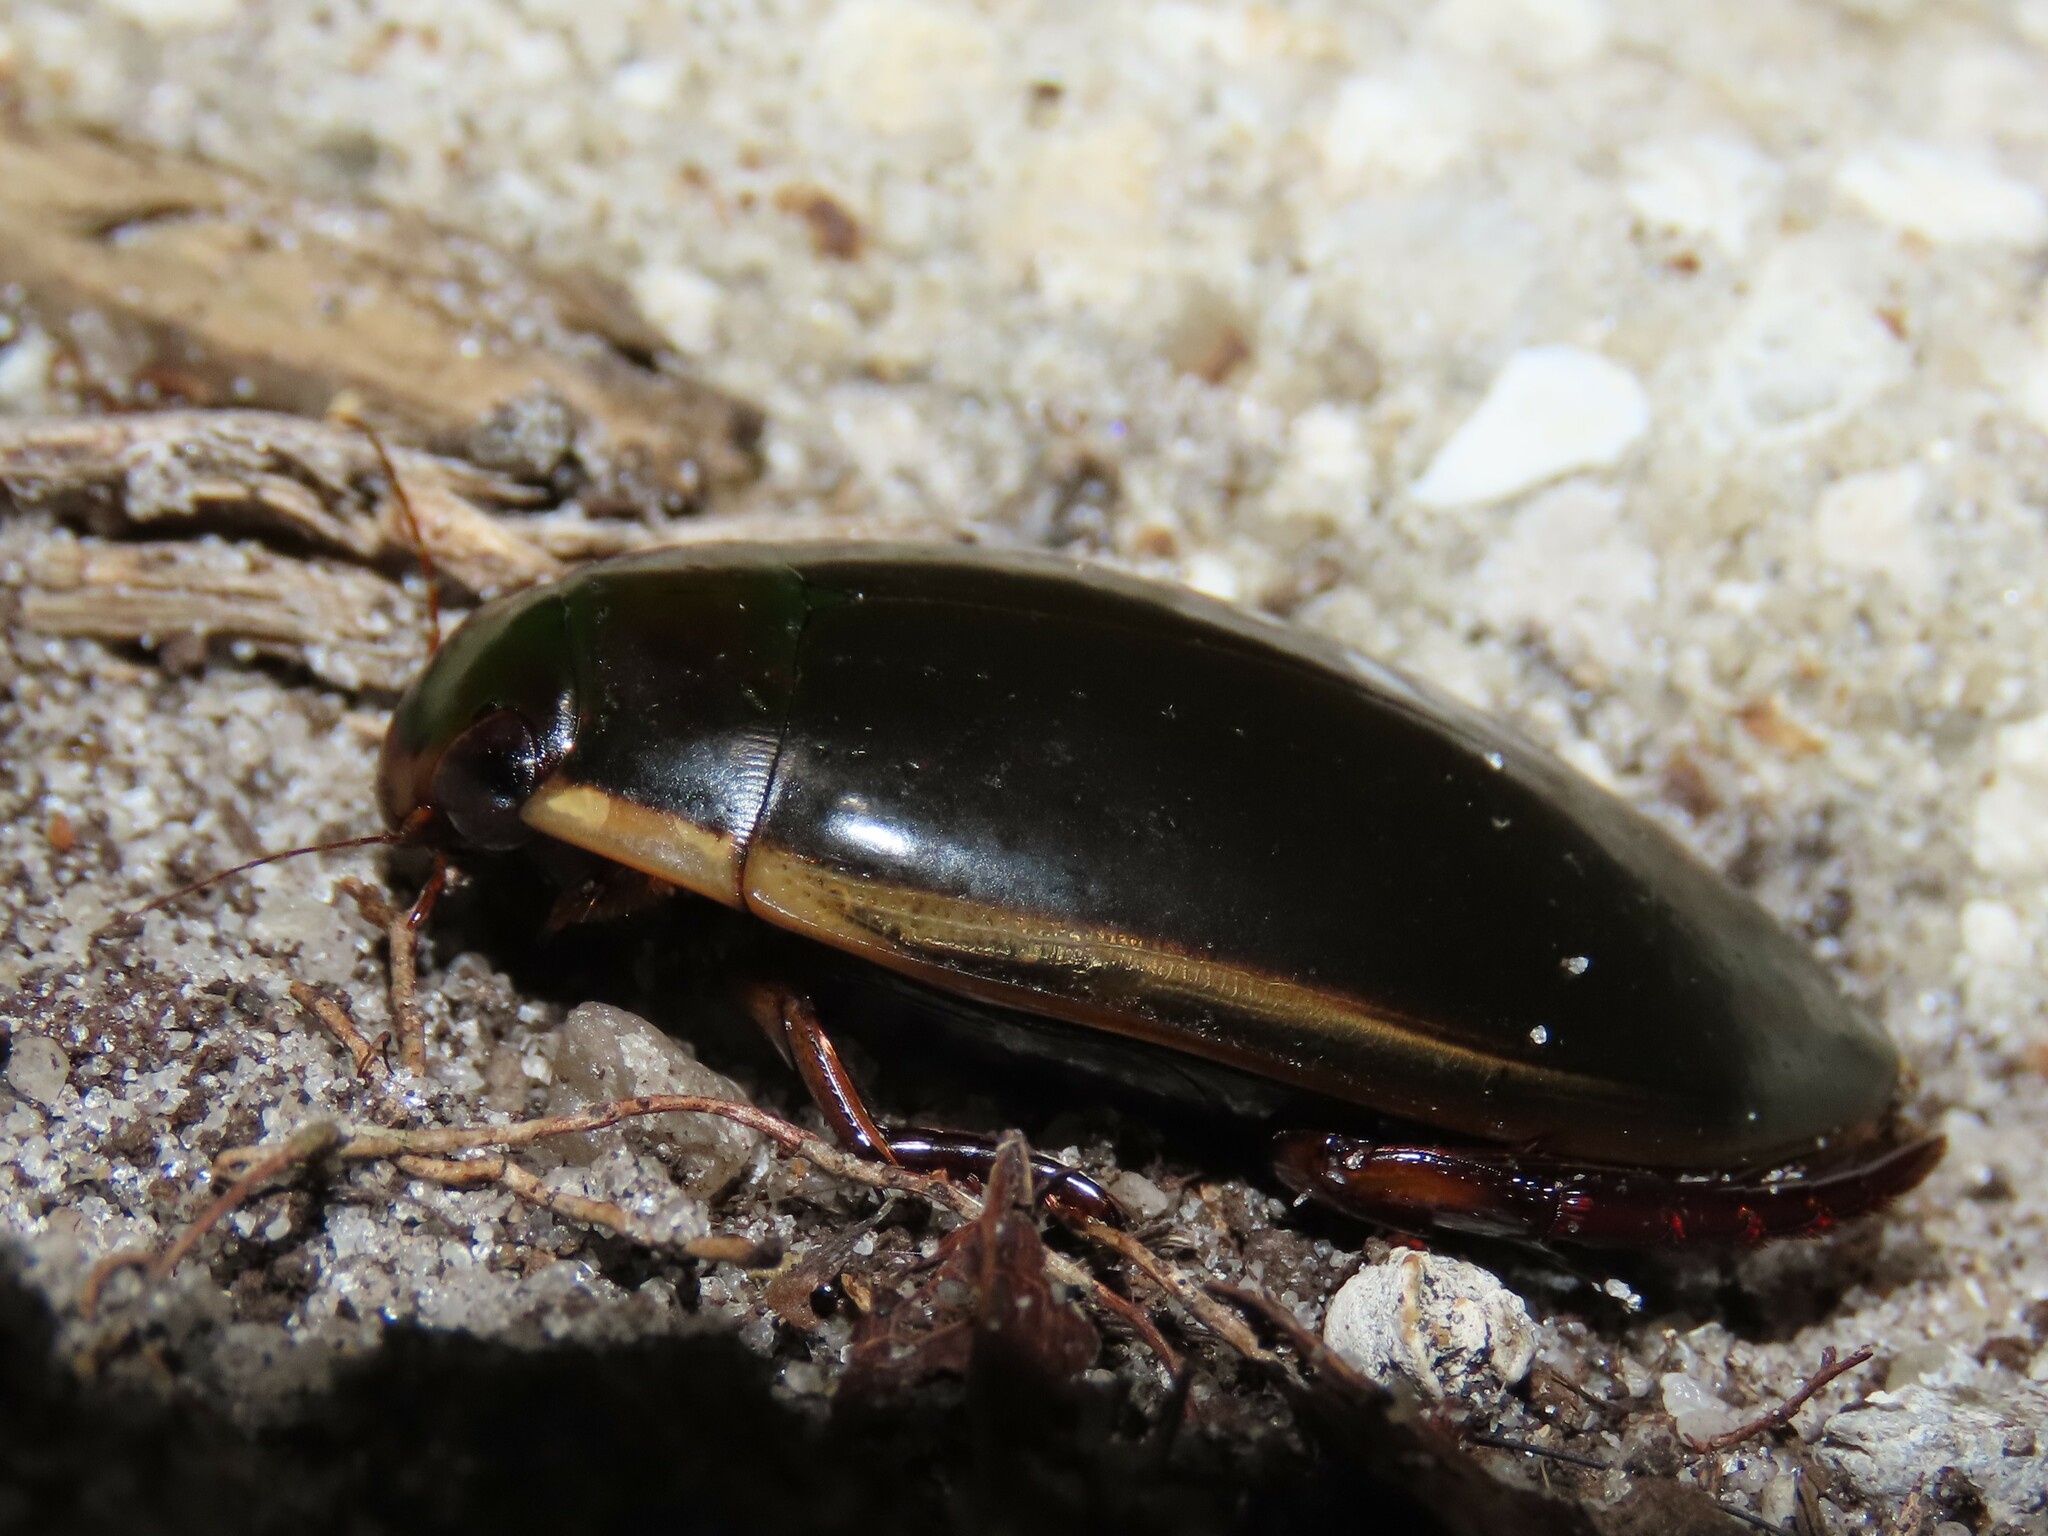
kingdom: Animalia
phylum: Arthropoda
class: Insecta
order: Coleoptera
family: Dytiscidae
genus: Cybister
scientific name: Cybister fimbriolatus
